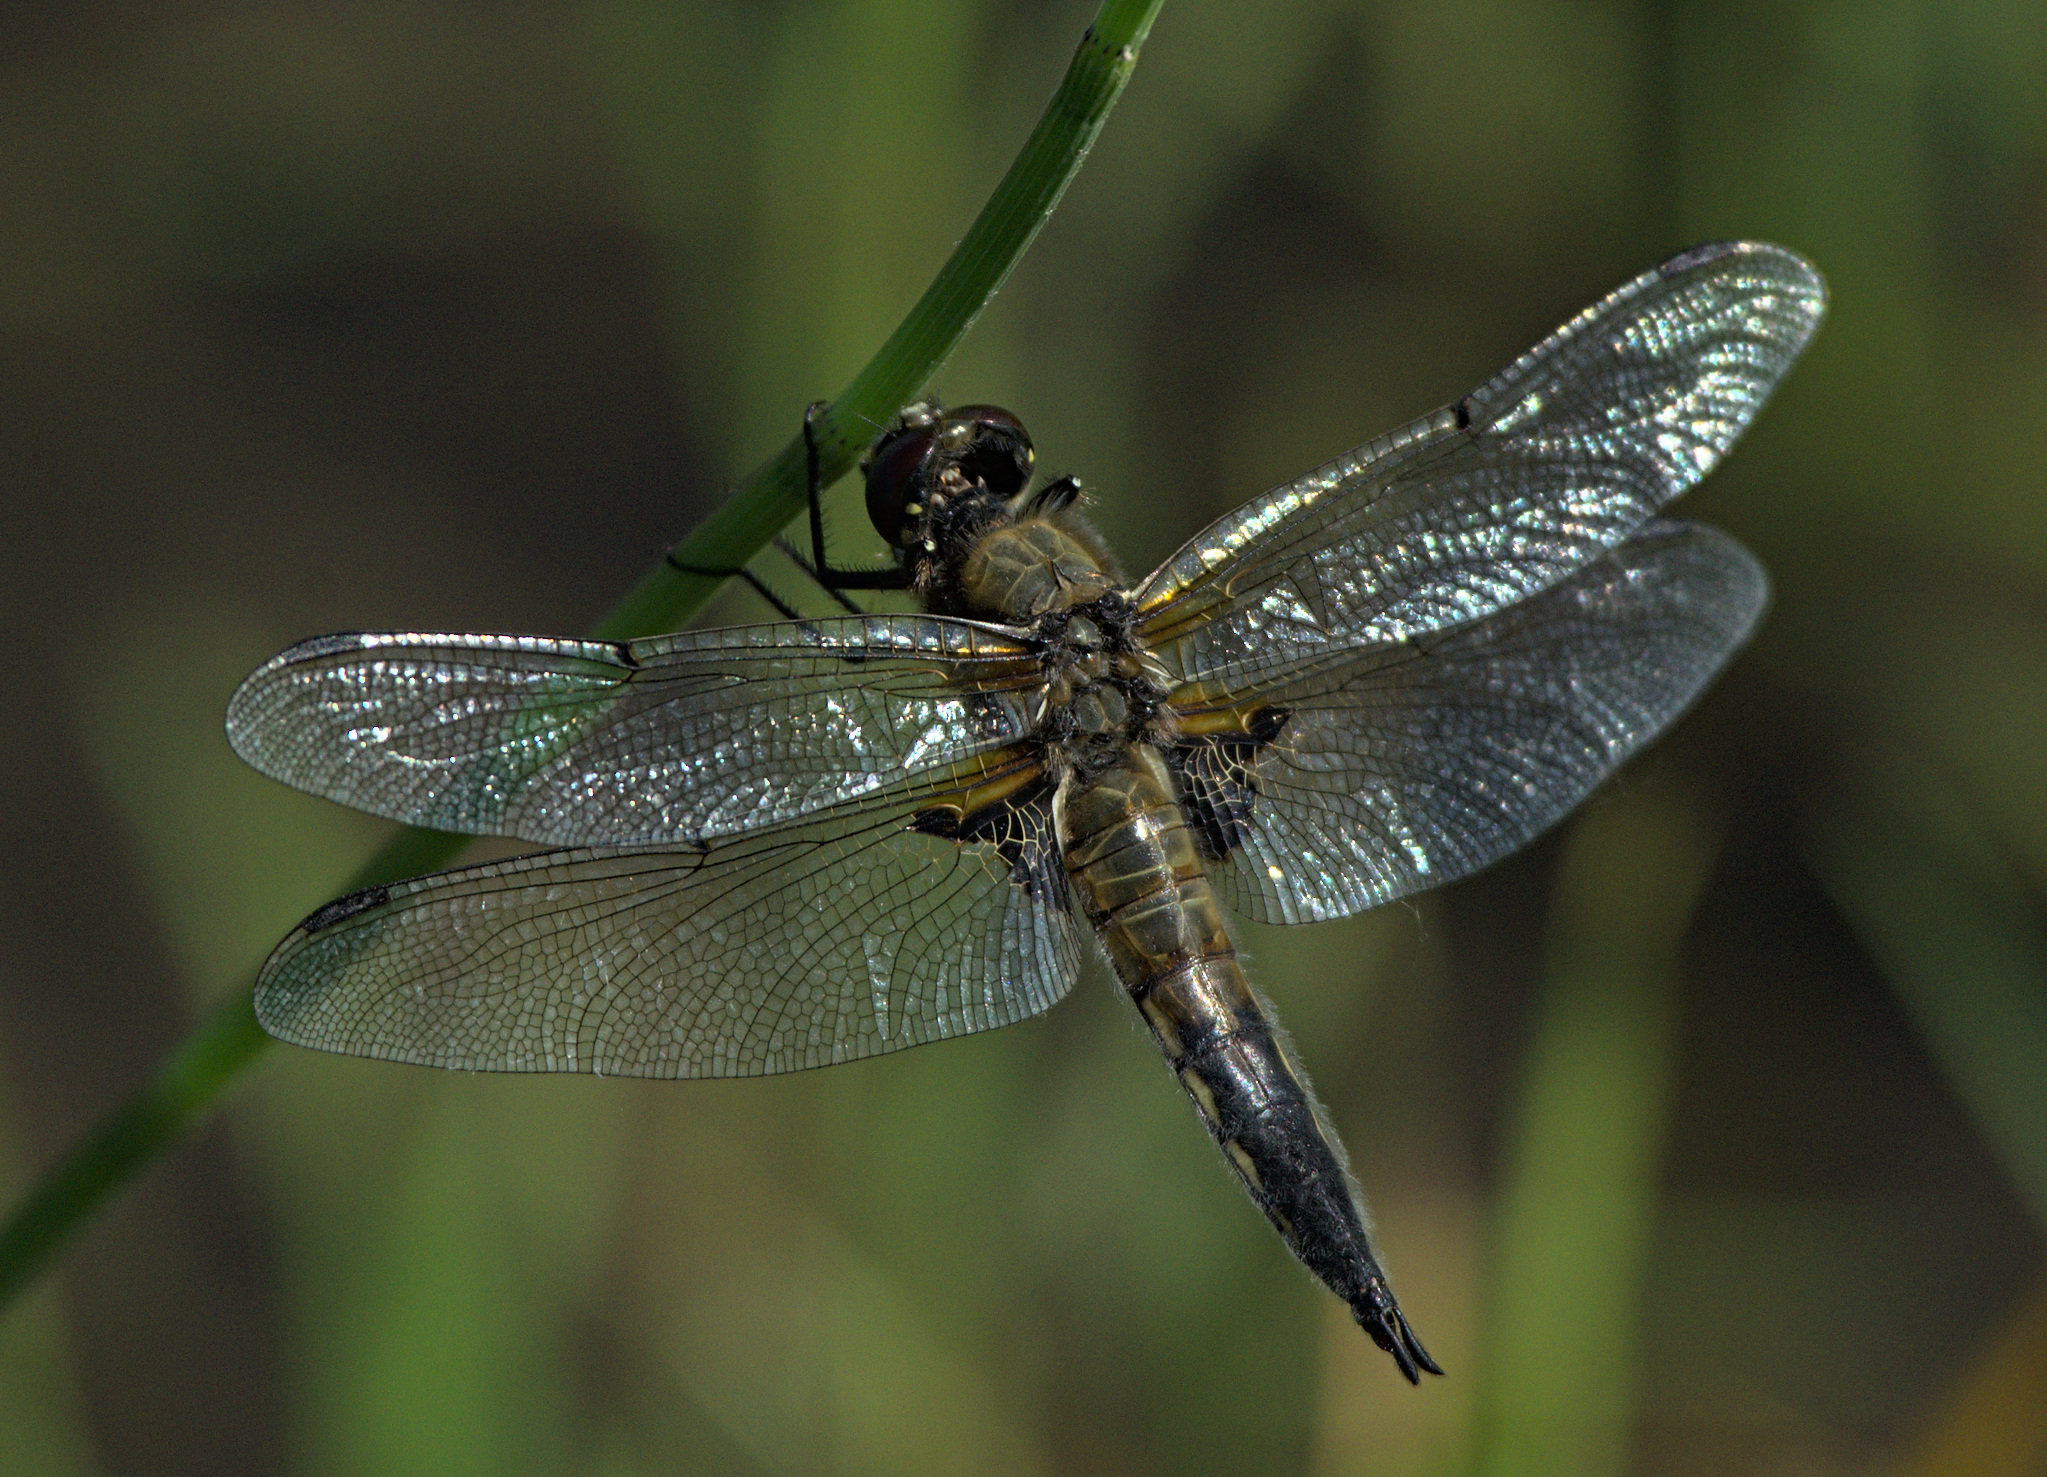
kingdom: Animalia
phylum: Arthropoda
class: Insecta
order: Odonata
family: Libellulidae
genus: Libellula
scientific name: Libellula quadrimaculata
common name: Four-spotted chaser
